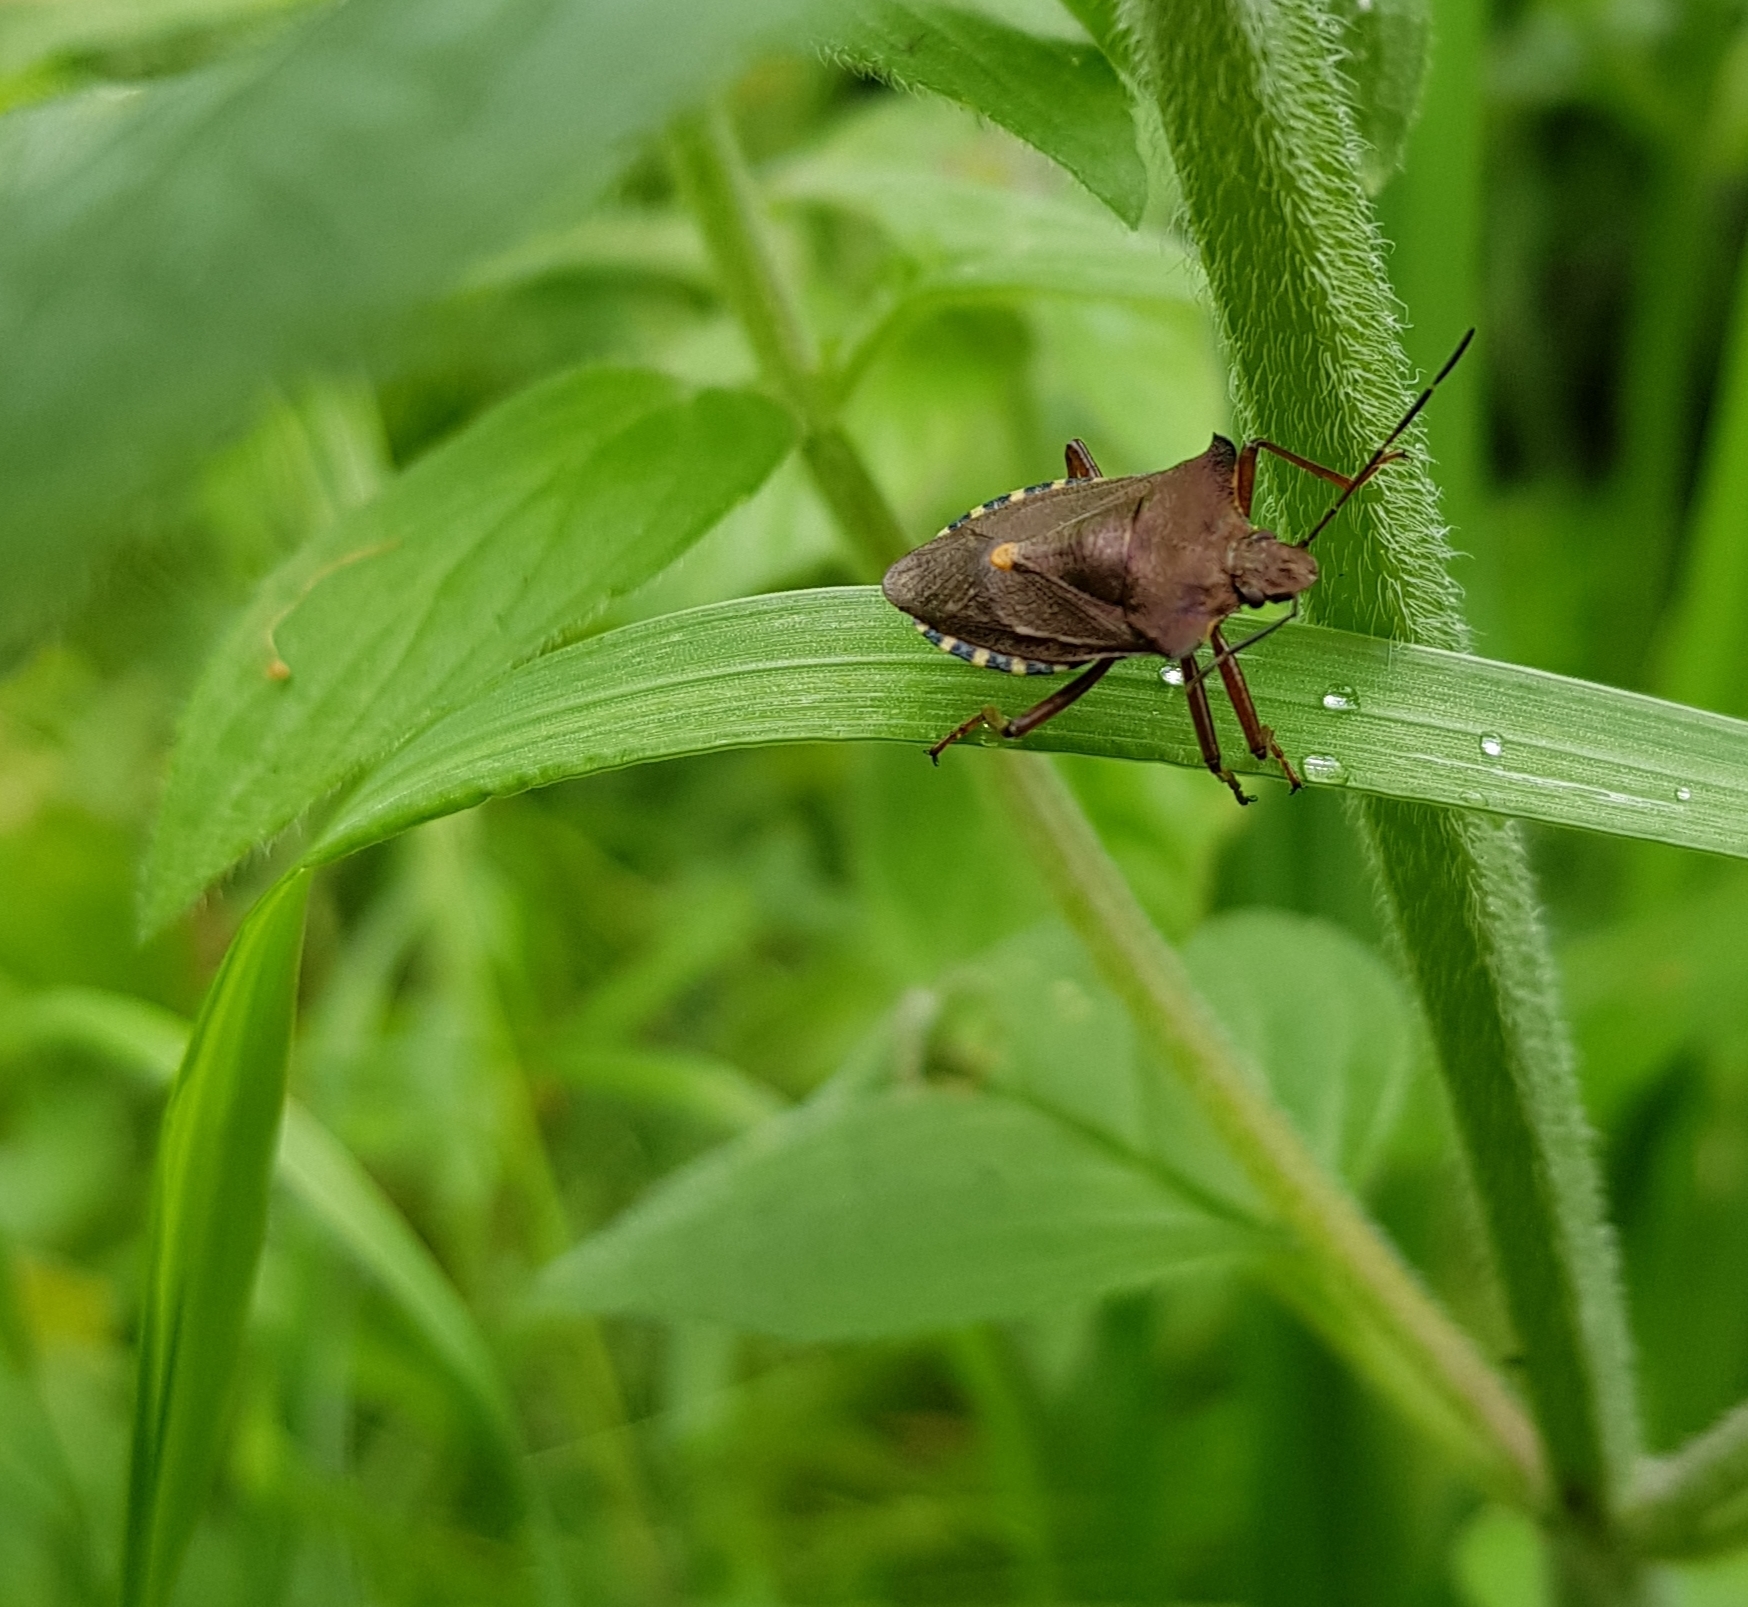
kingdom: Animalia
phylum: Arthropoda
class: Insecta
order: Hemiptera
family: Pentatomidae
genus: Pentatoma
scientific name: Pentatoma rufipes
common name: Forest bug
